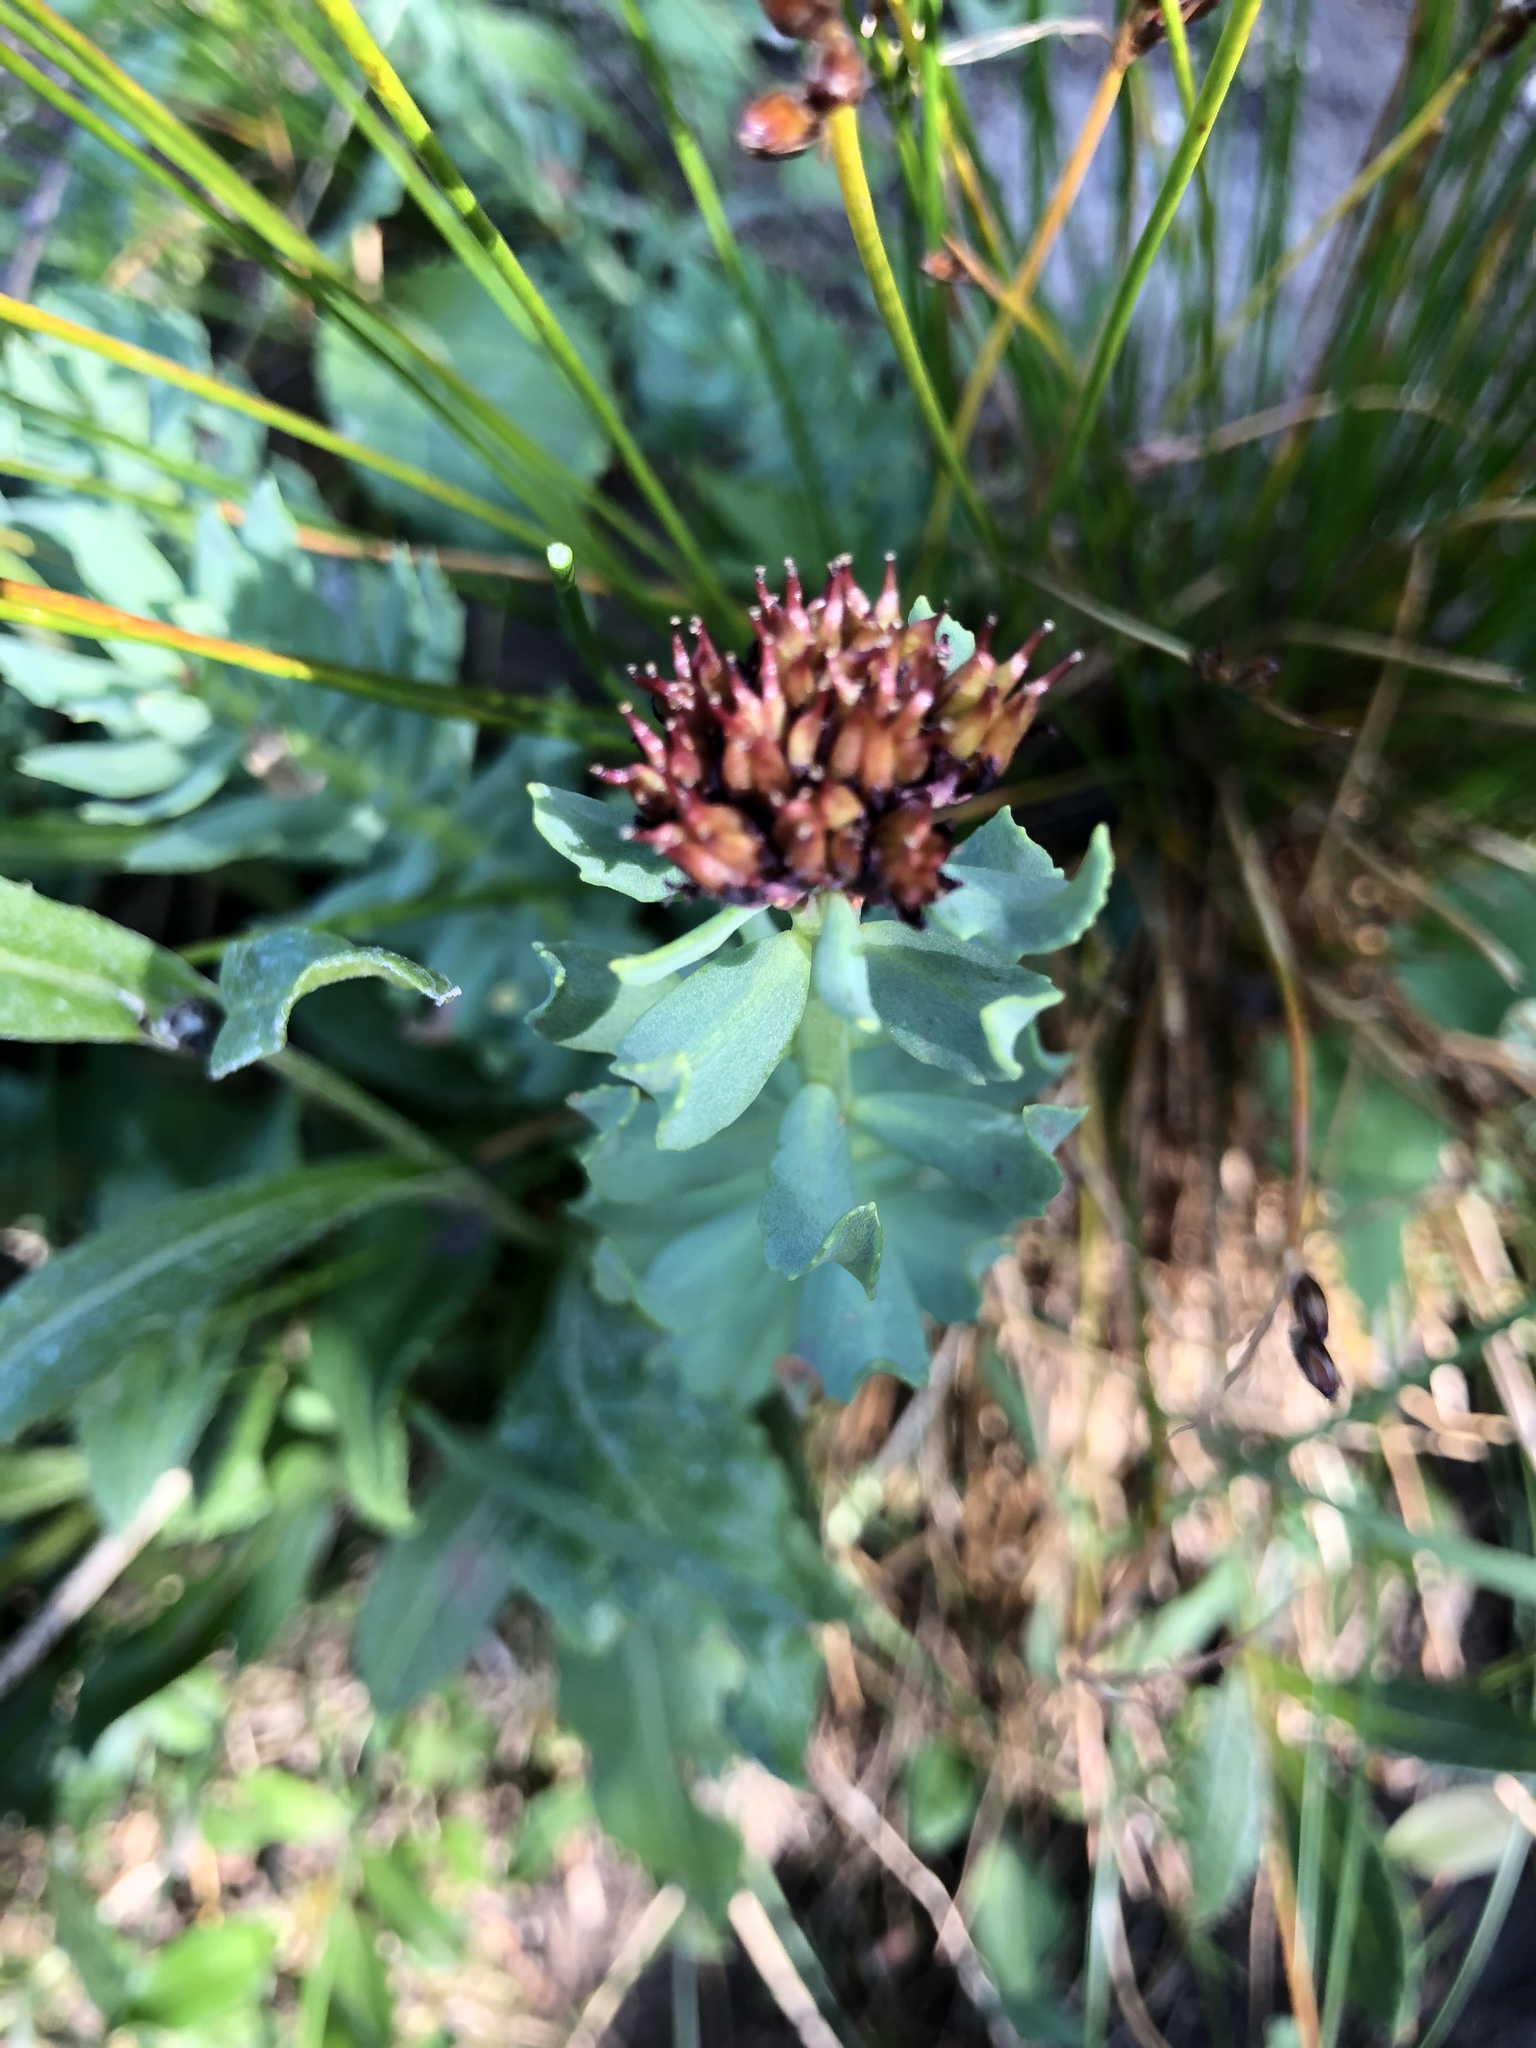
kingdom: Plantae
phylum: Tracheophyta
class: Magnoliopsida
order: Saxifragales
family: Crassulaceae
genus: Rhodiola
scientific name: Rhodiola integrifolia
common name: Western roseroot
